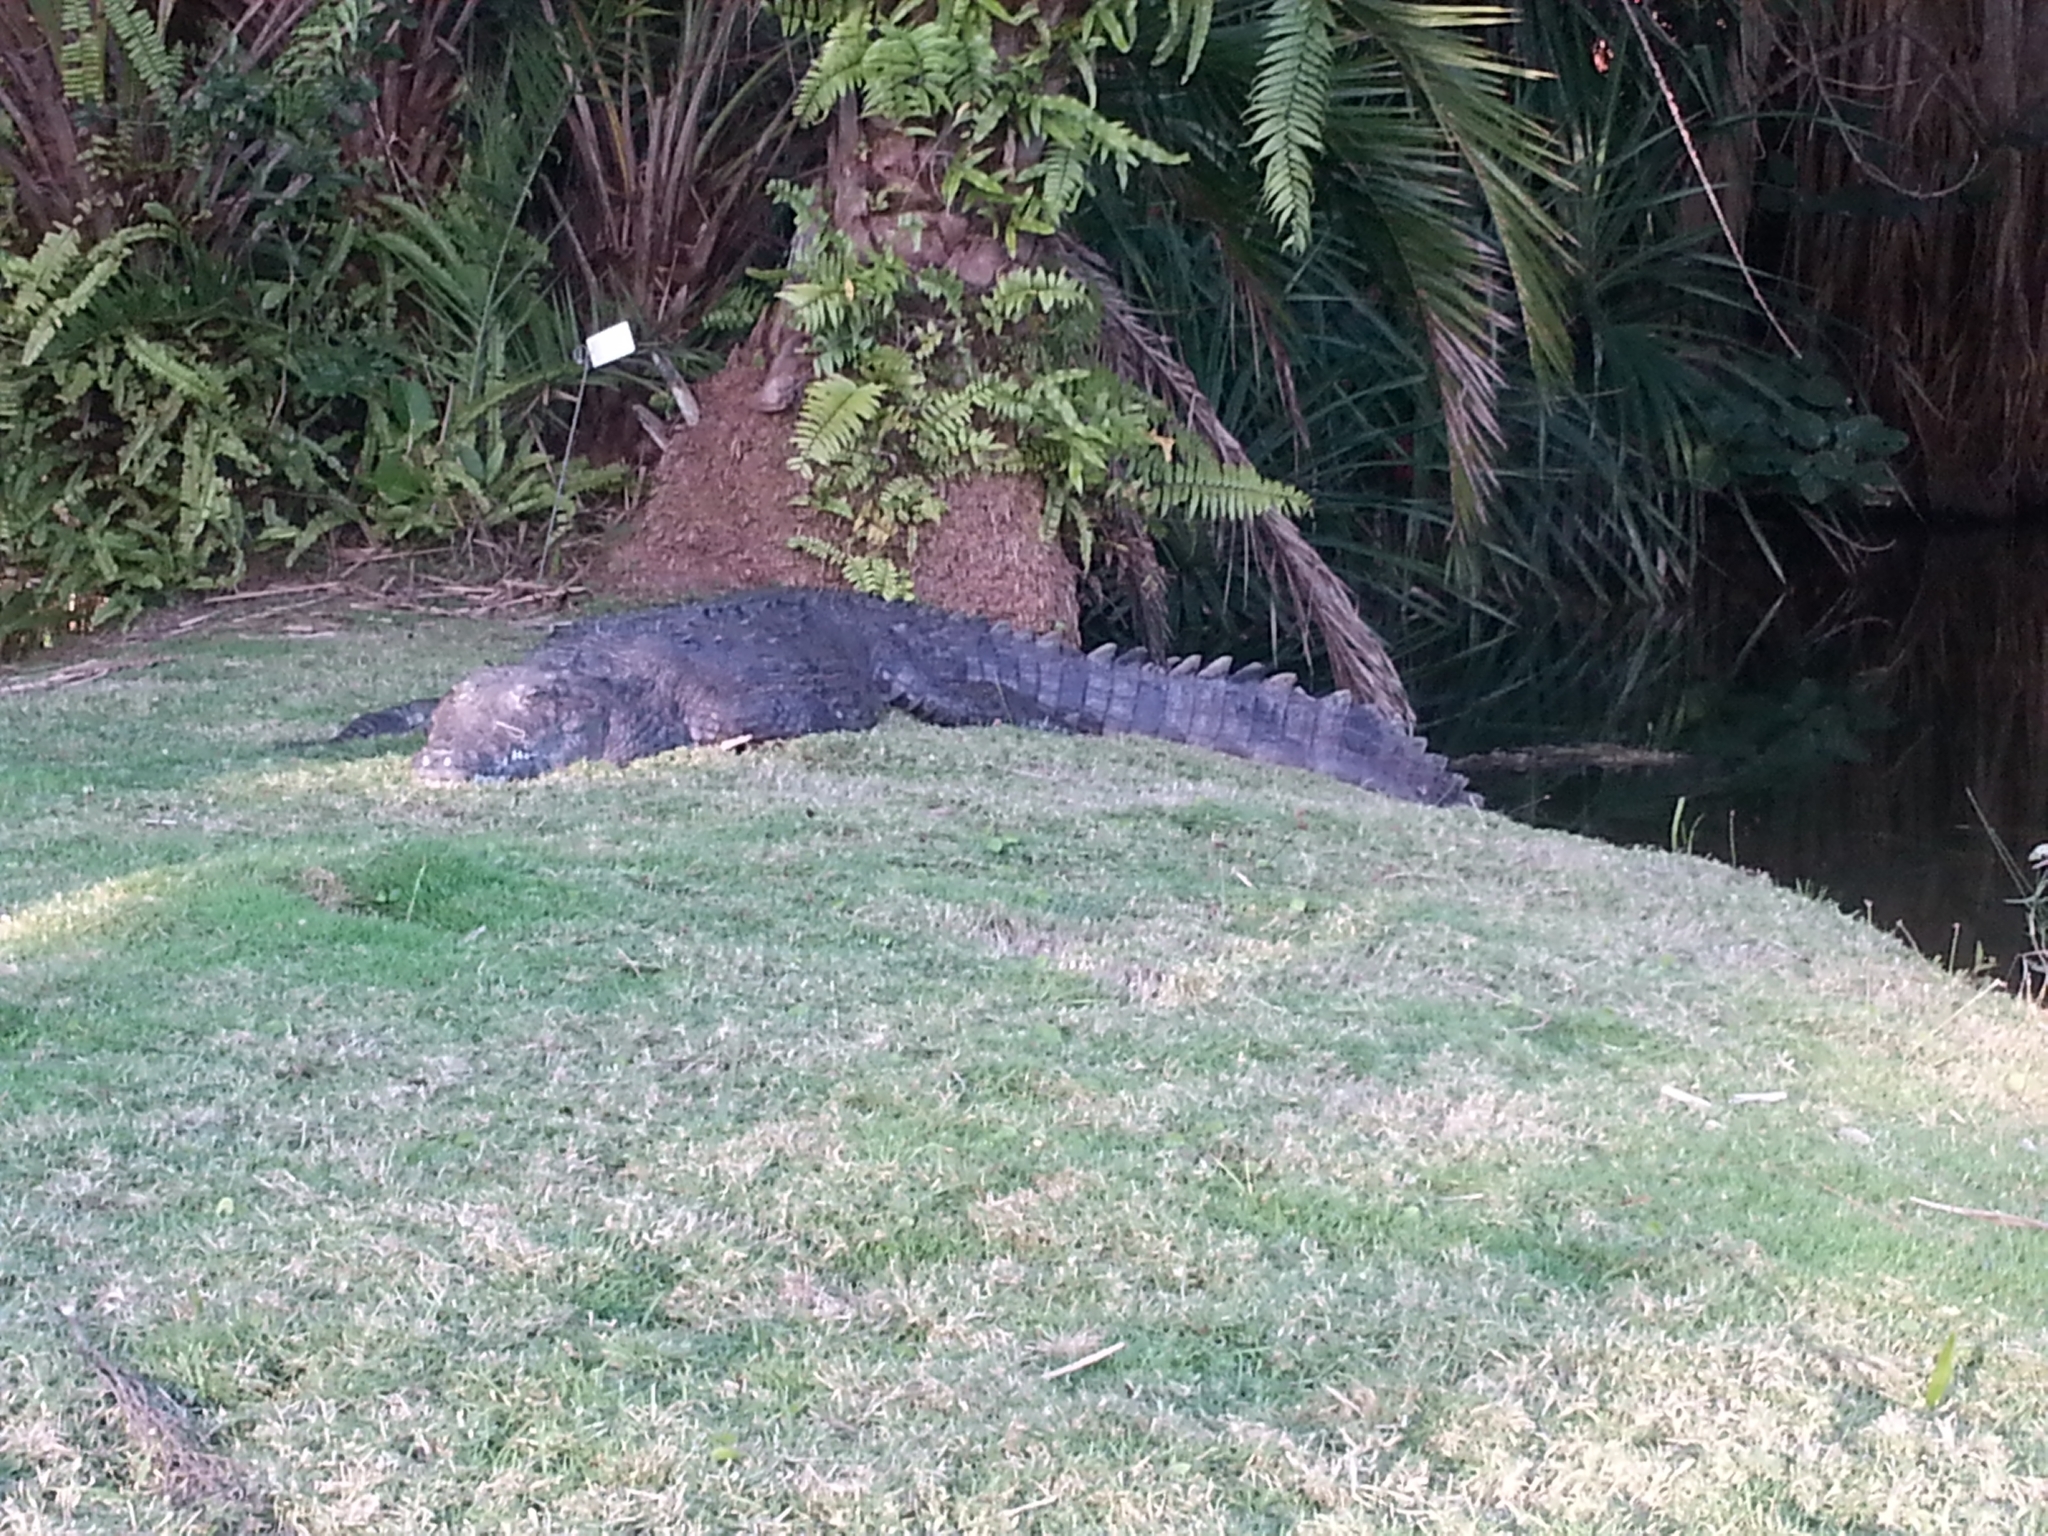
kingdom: Animalia
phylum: Chordata
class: Crocodylia
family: Crocodylidae
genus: Crocodylus
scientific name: Crocodylus acutus
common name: American crocodile
